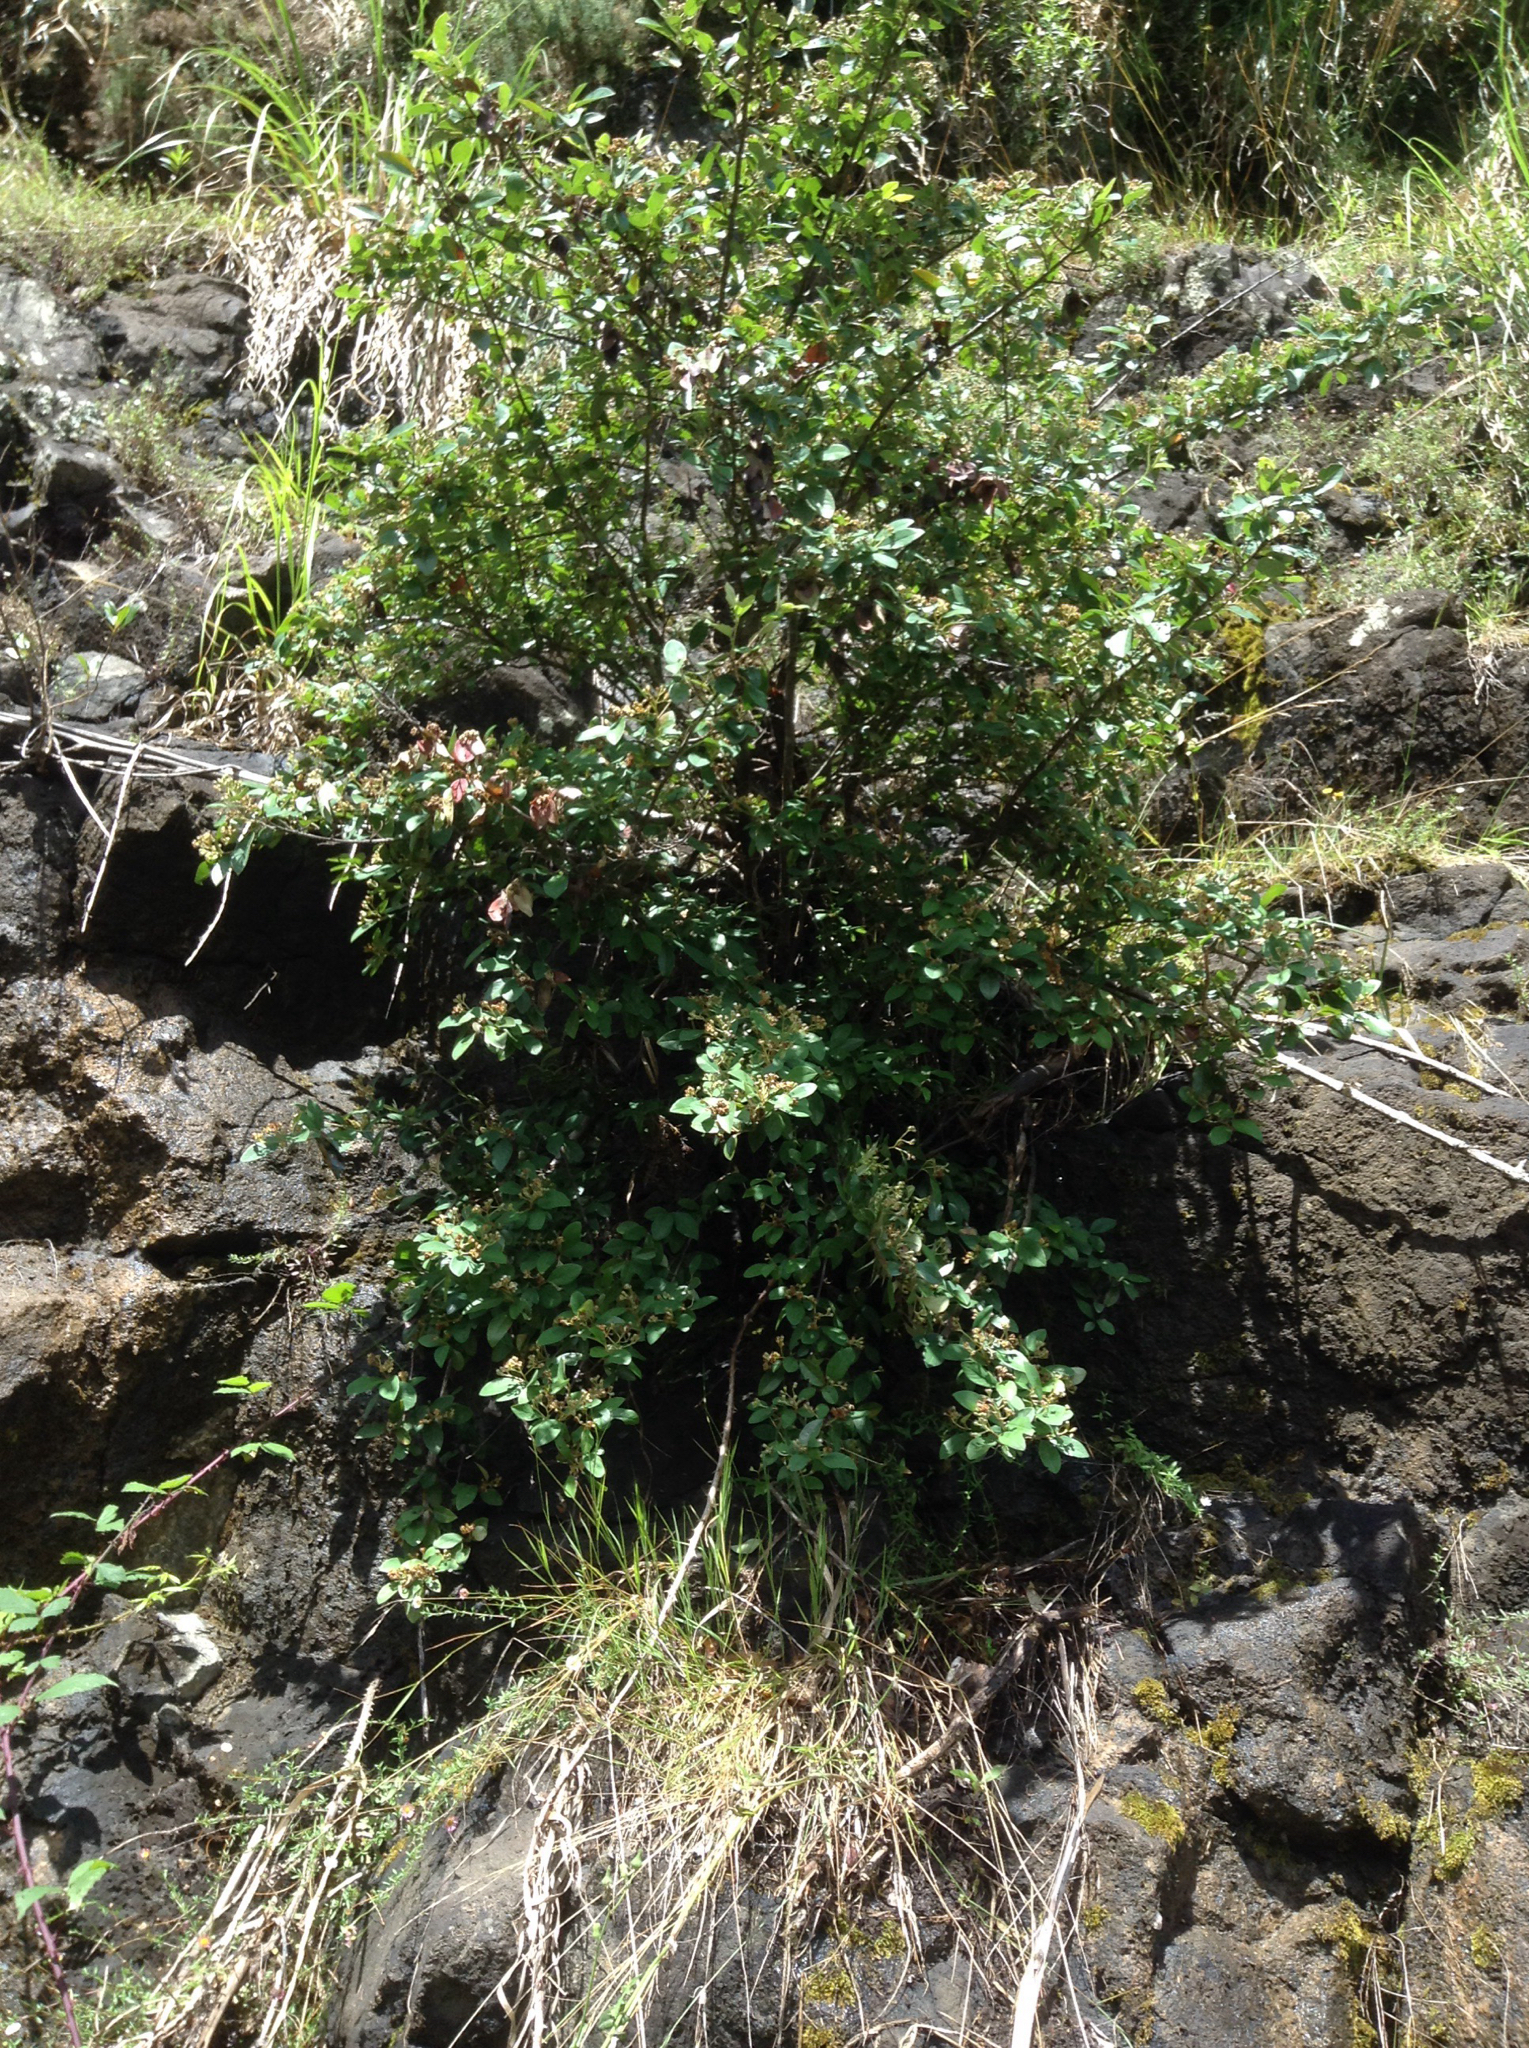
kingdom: Plantae
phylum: Tracheophyta
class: Magnoliopsida
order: Rosales
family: Rosaceae
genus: Cotoneaster
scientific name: Cotoneaster glaucophyllus
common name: Glaucous cotoneaster
